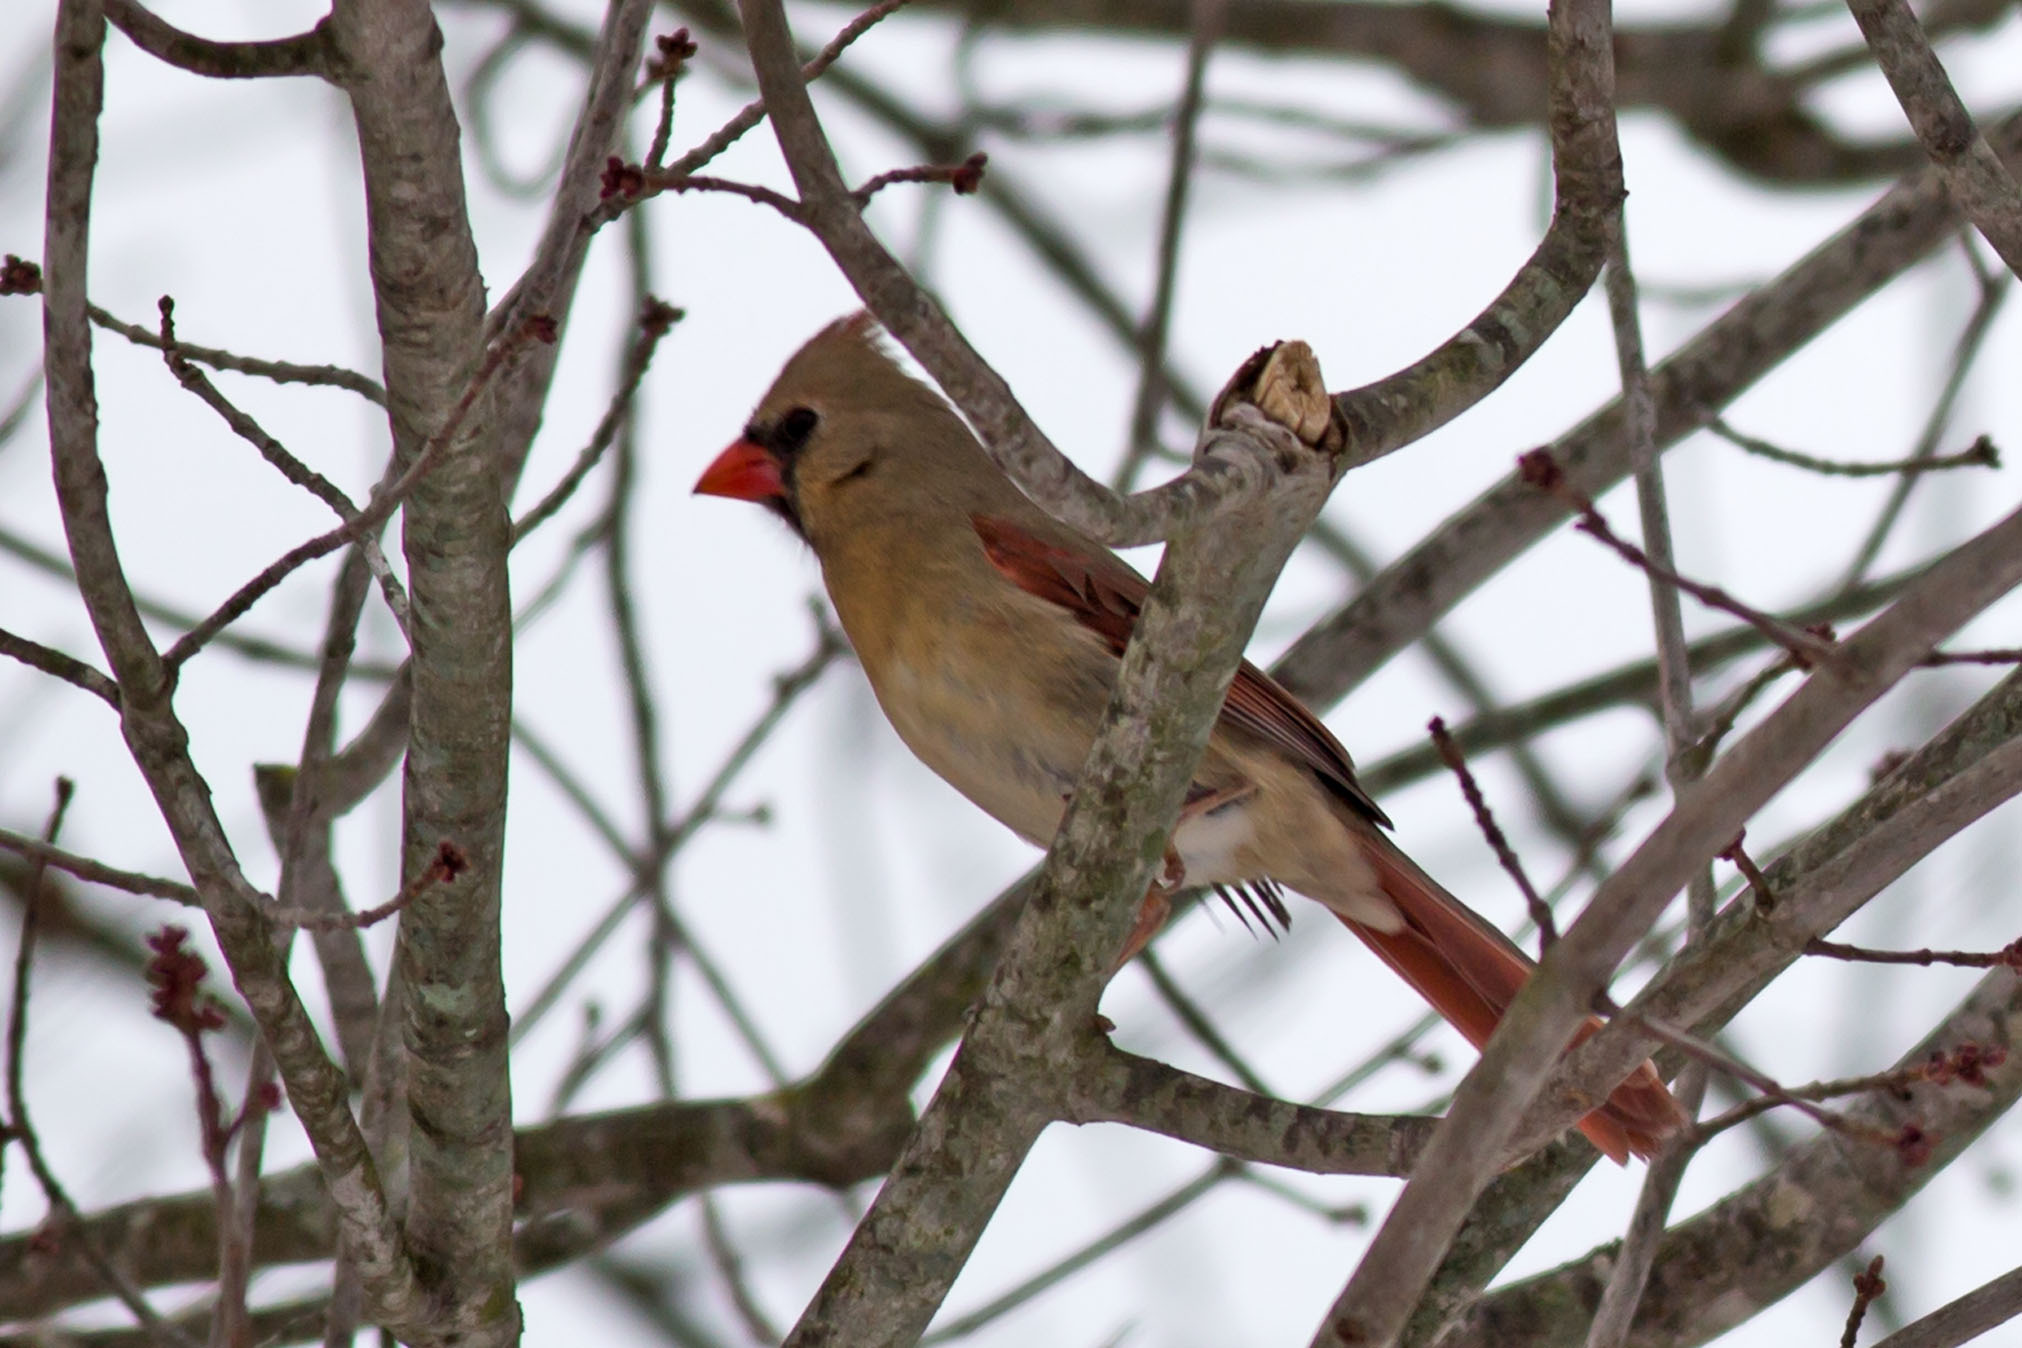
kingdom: Animalia
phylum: Chordata
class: Aves
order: Passeriformes
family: Cardinalidae
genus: Cardinalis
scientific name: Cardinalis cardinalis
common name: Northern cardinal
